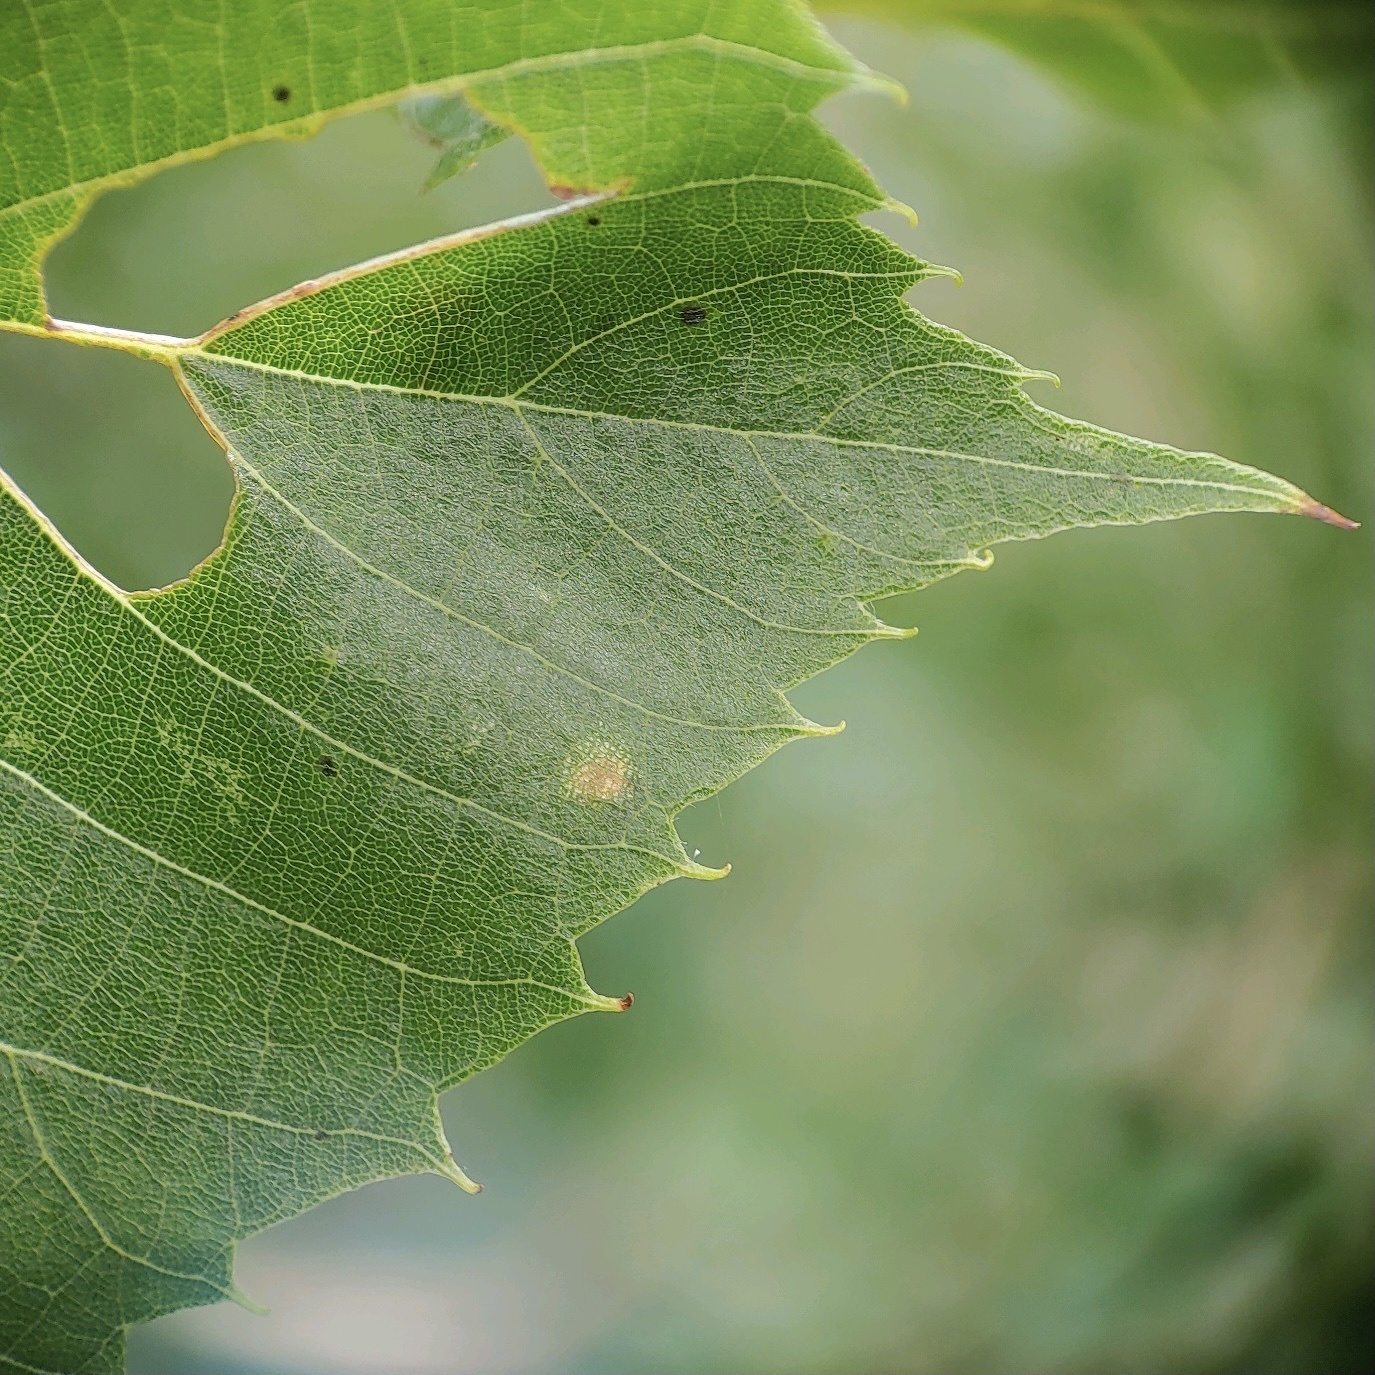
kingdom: Animalia
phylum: Arthropoda
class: Insecta
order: Lepidoptera
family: Gracillariidae
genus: Phyllonorycter
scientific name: Phyllonorycter lucetiella
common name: Basswood miner moth
